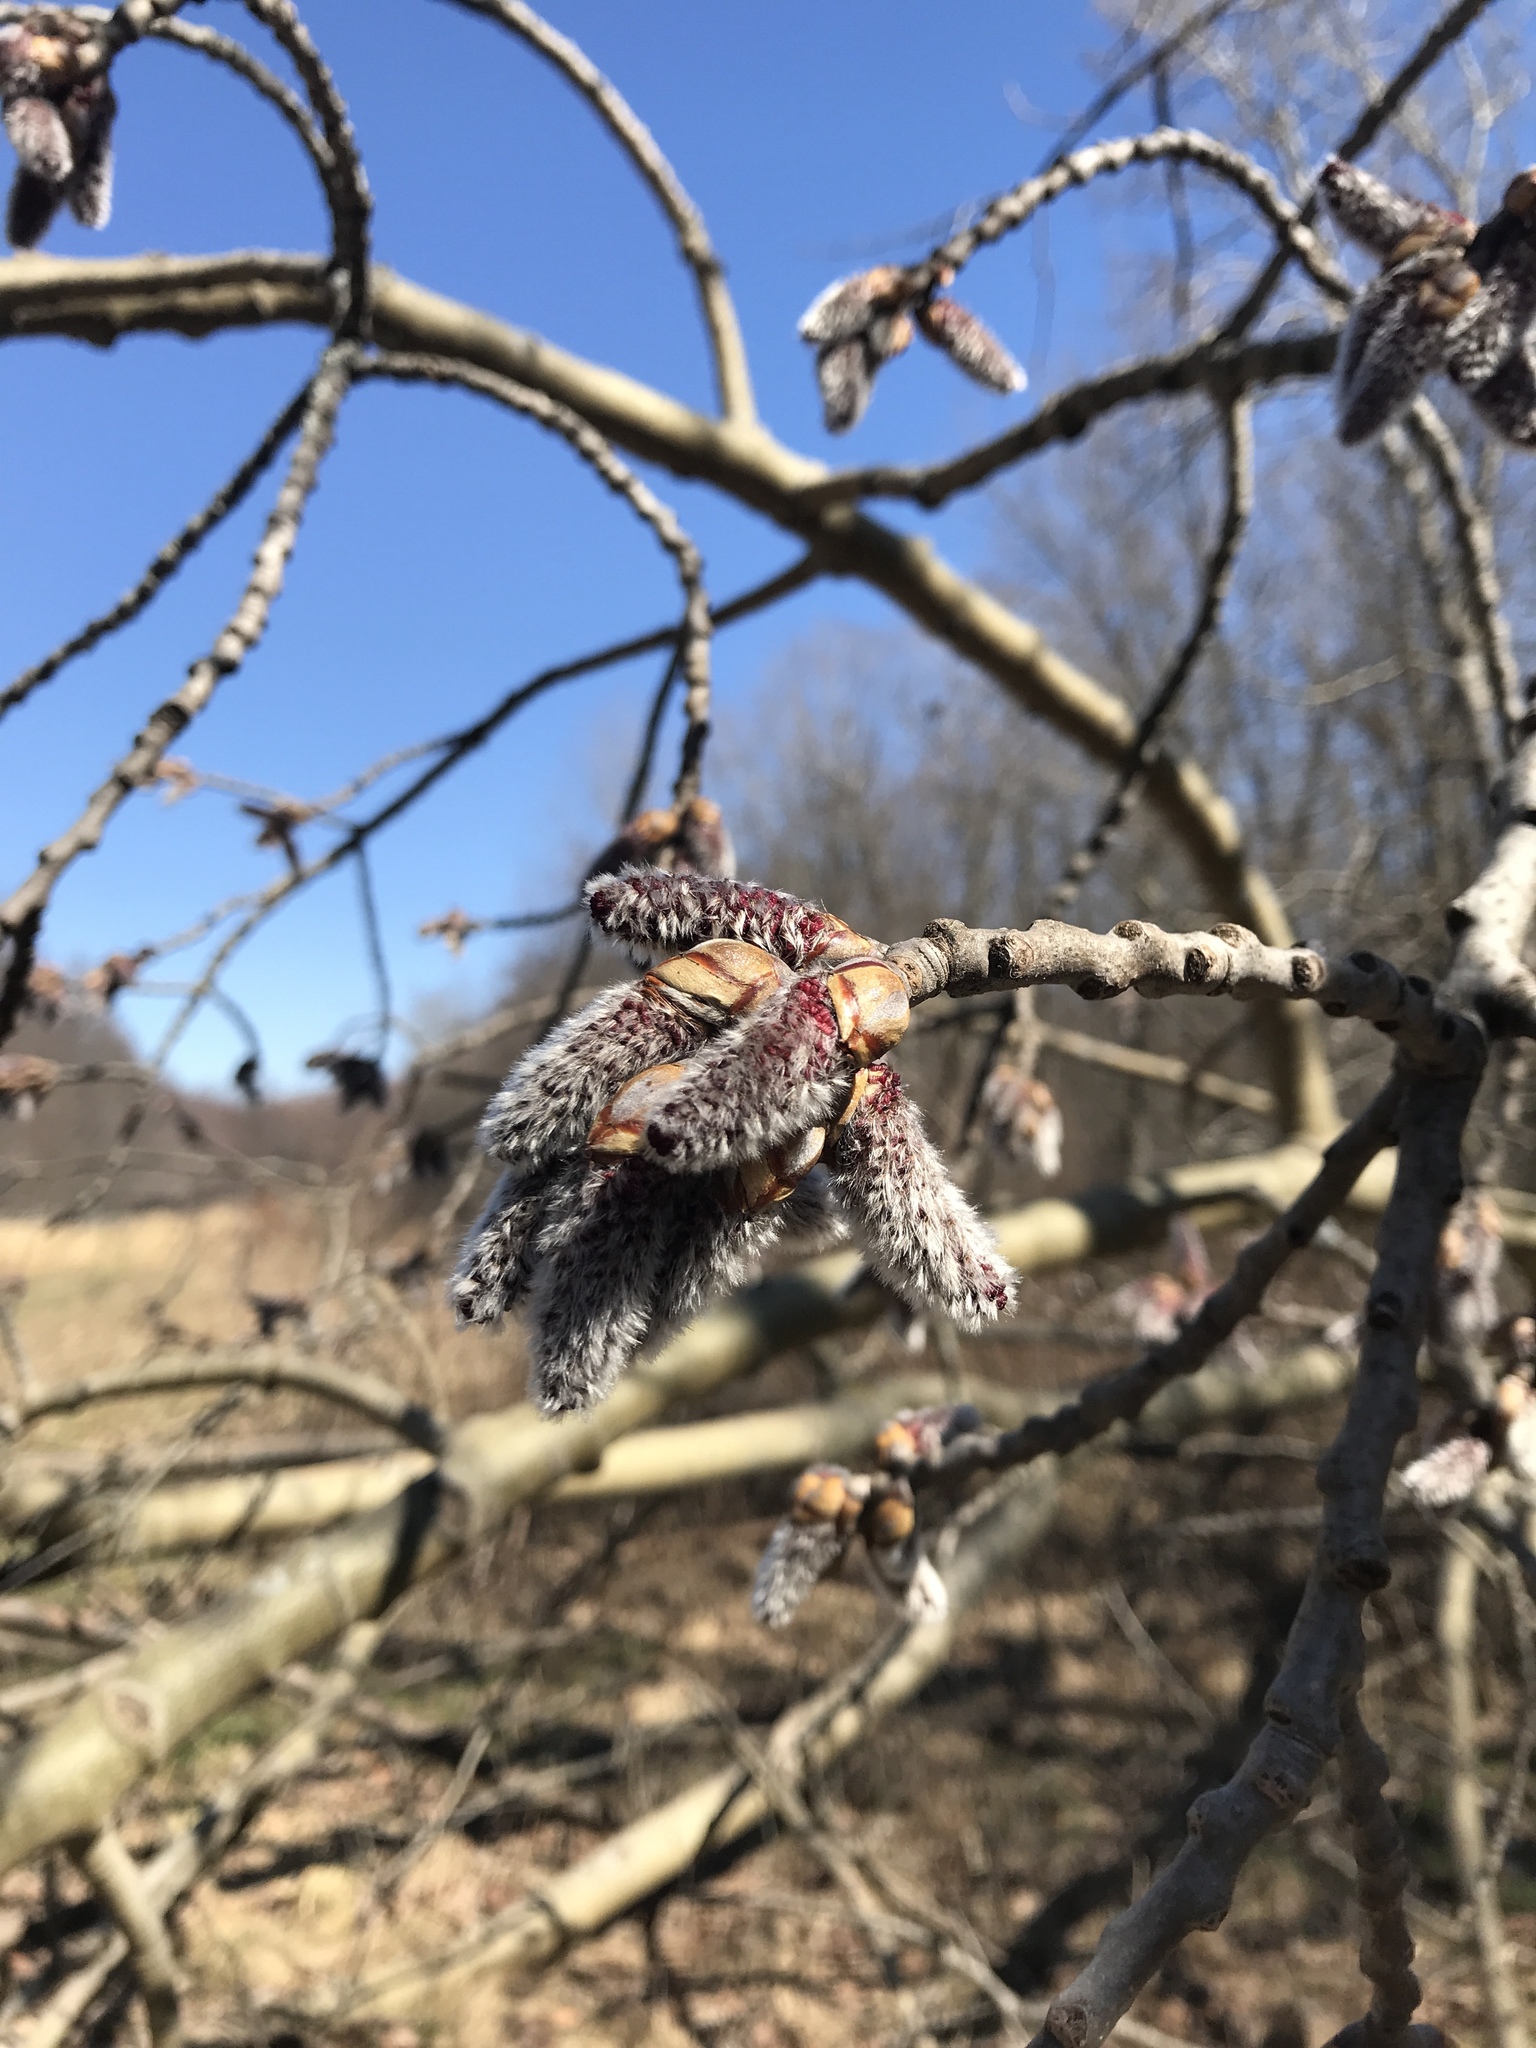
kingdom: Plantae
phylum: Tracheophyta
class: Magnoliopsida
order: Malpighiales
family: Salicaceae
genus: Populus
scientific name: Populus tremuloides
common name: Quaking aspen
